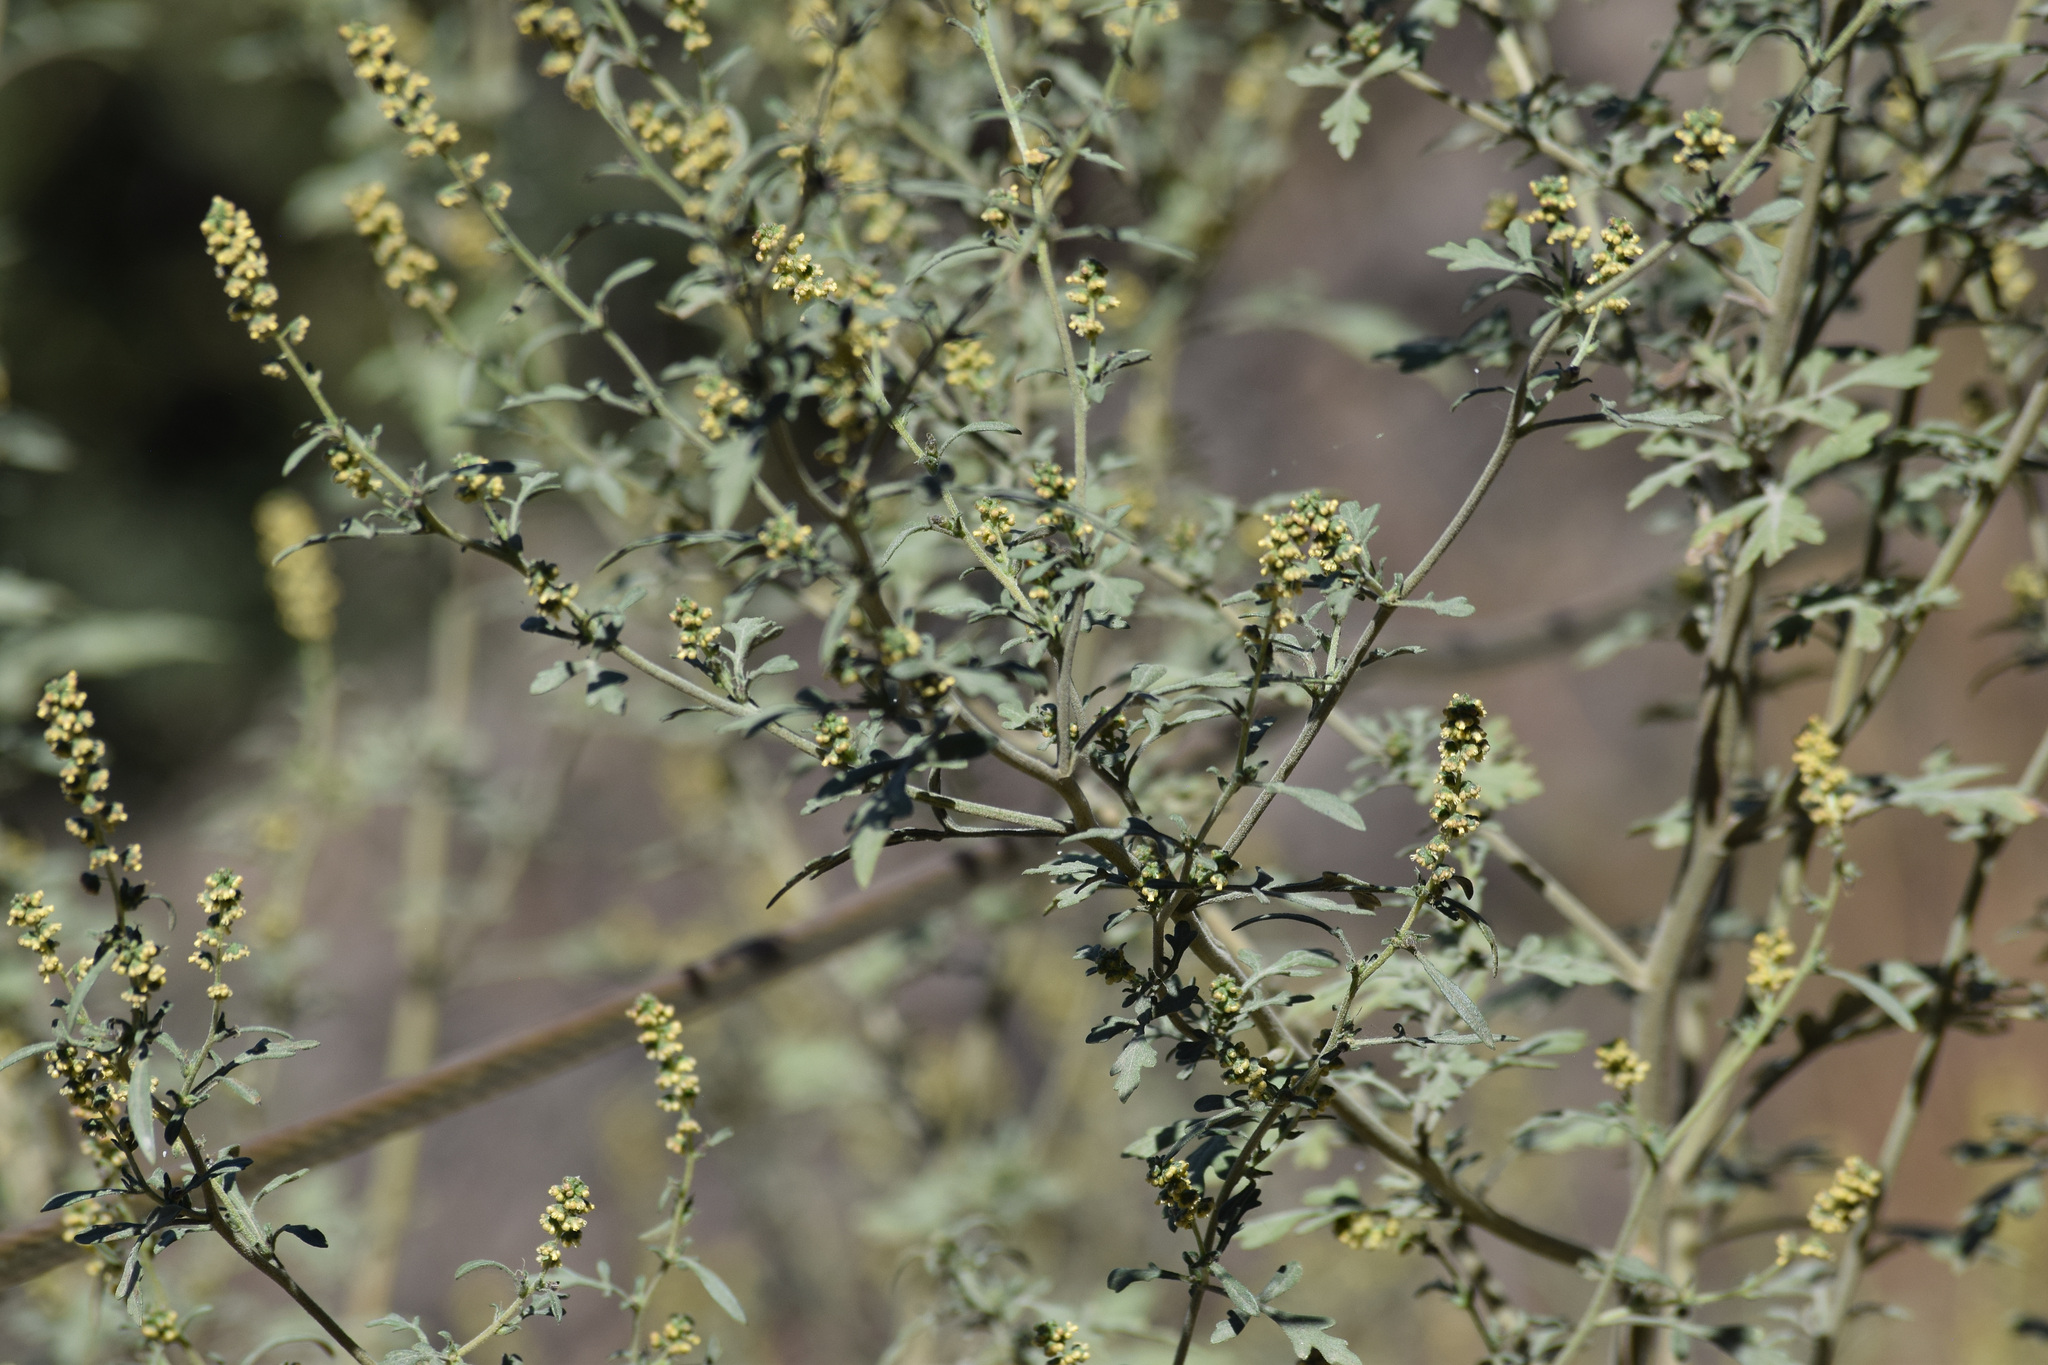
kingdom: Plantae
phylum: Tracheophyta
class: Magnoliopsida
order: Asterales
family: Asteraceae
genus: Ambrosia
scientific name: Ambrosia acanthicarpa
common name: Hooker's bur ragweed
